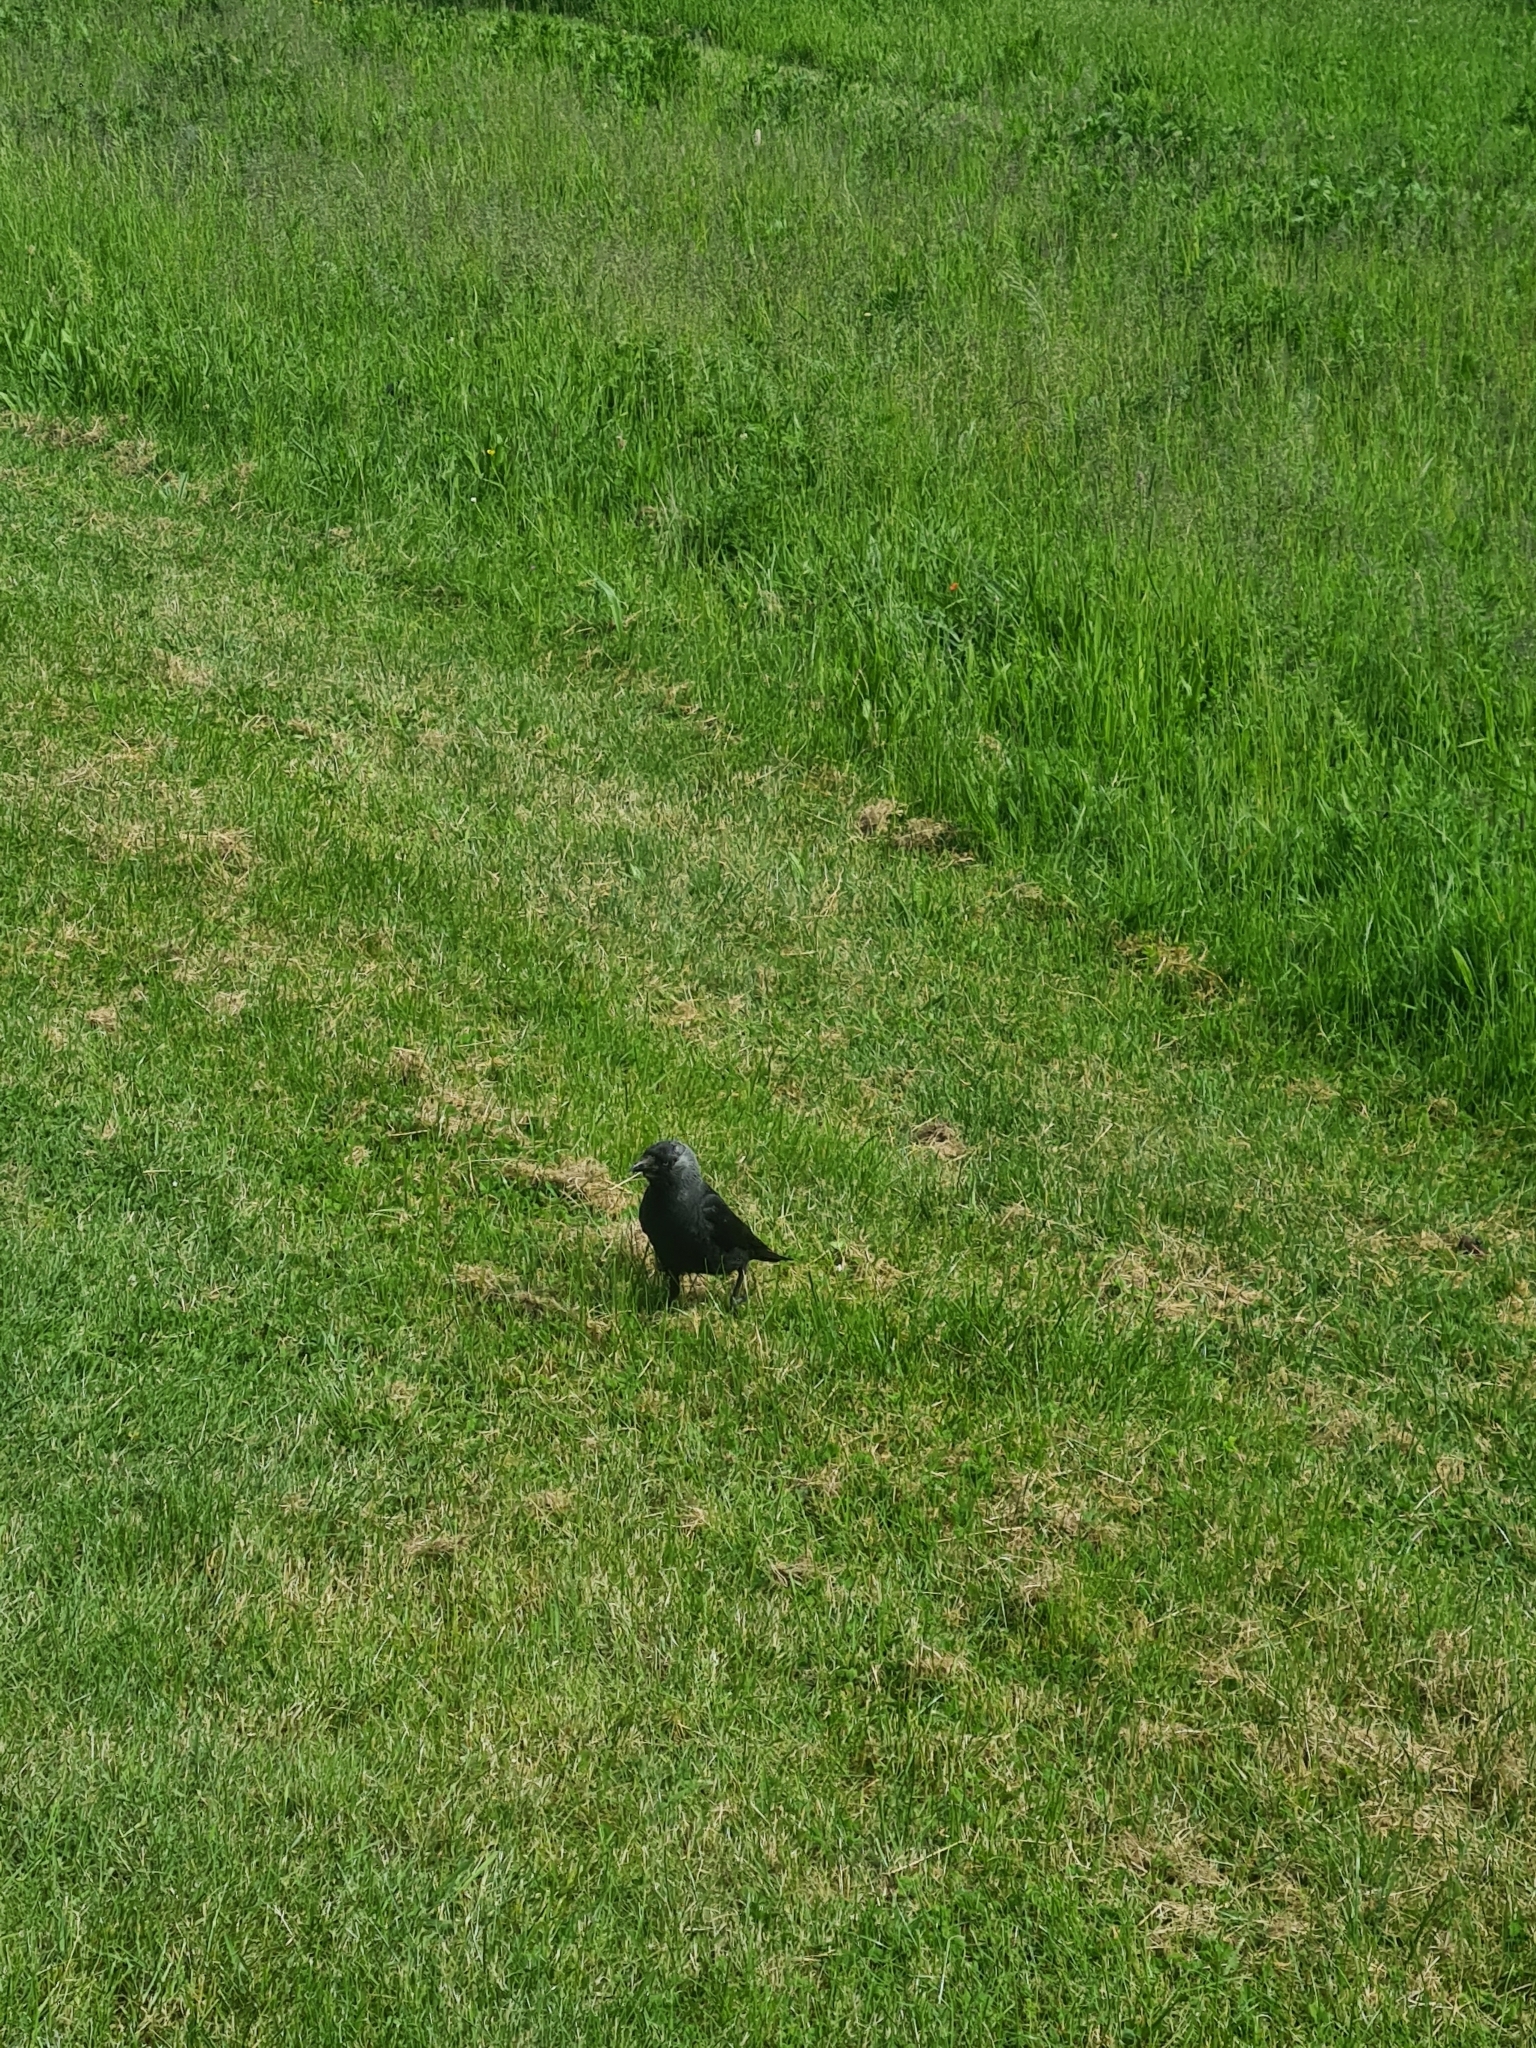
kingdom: Animalia
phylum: Chordata
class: Aves
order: Passeriformes
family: Corvidae
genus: Coloeus
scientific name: Coloeus monedula
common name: Western jackdaw
